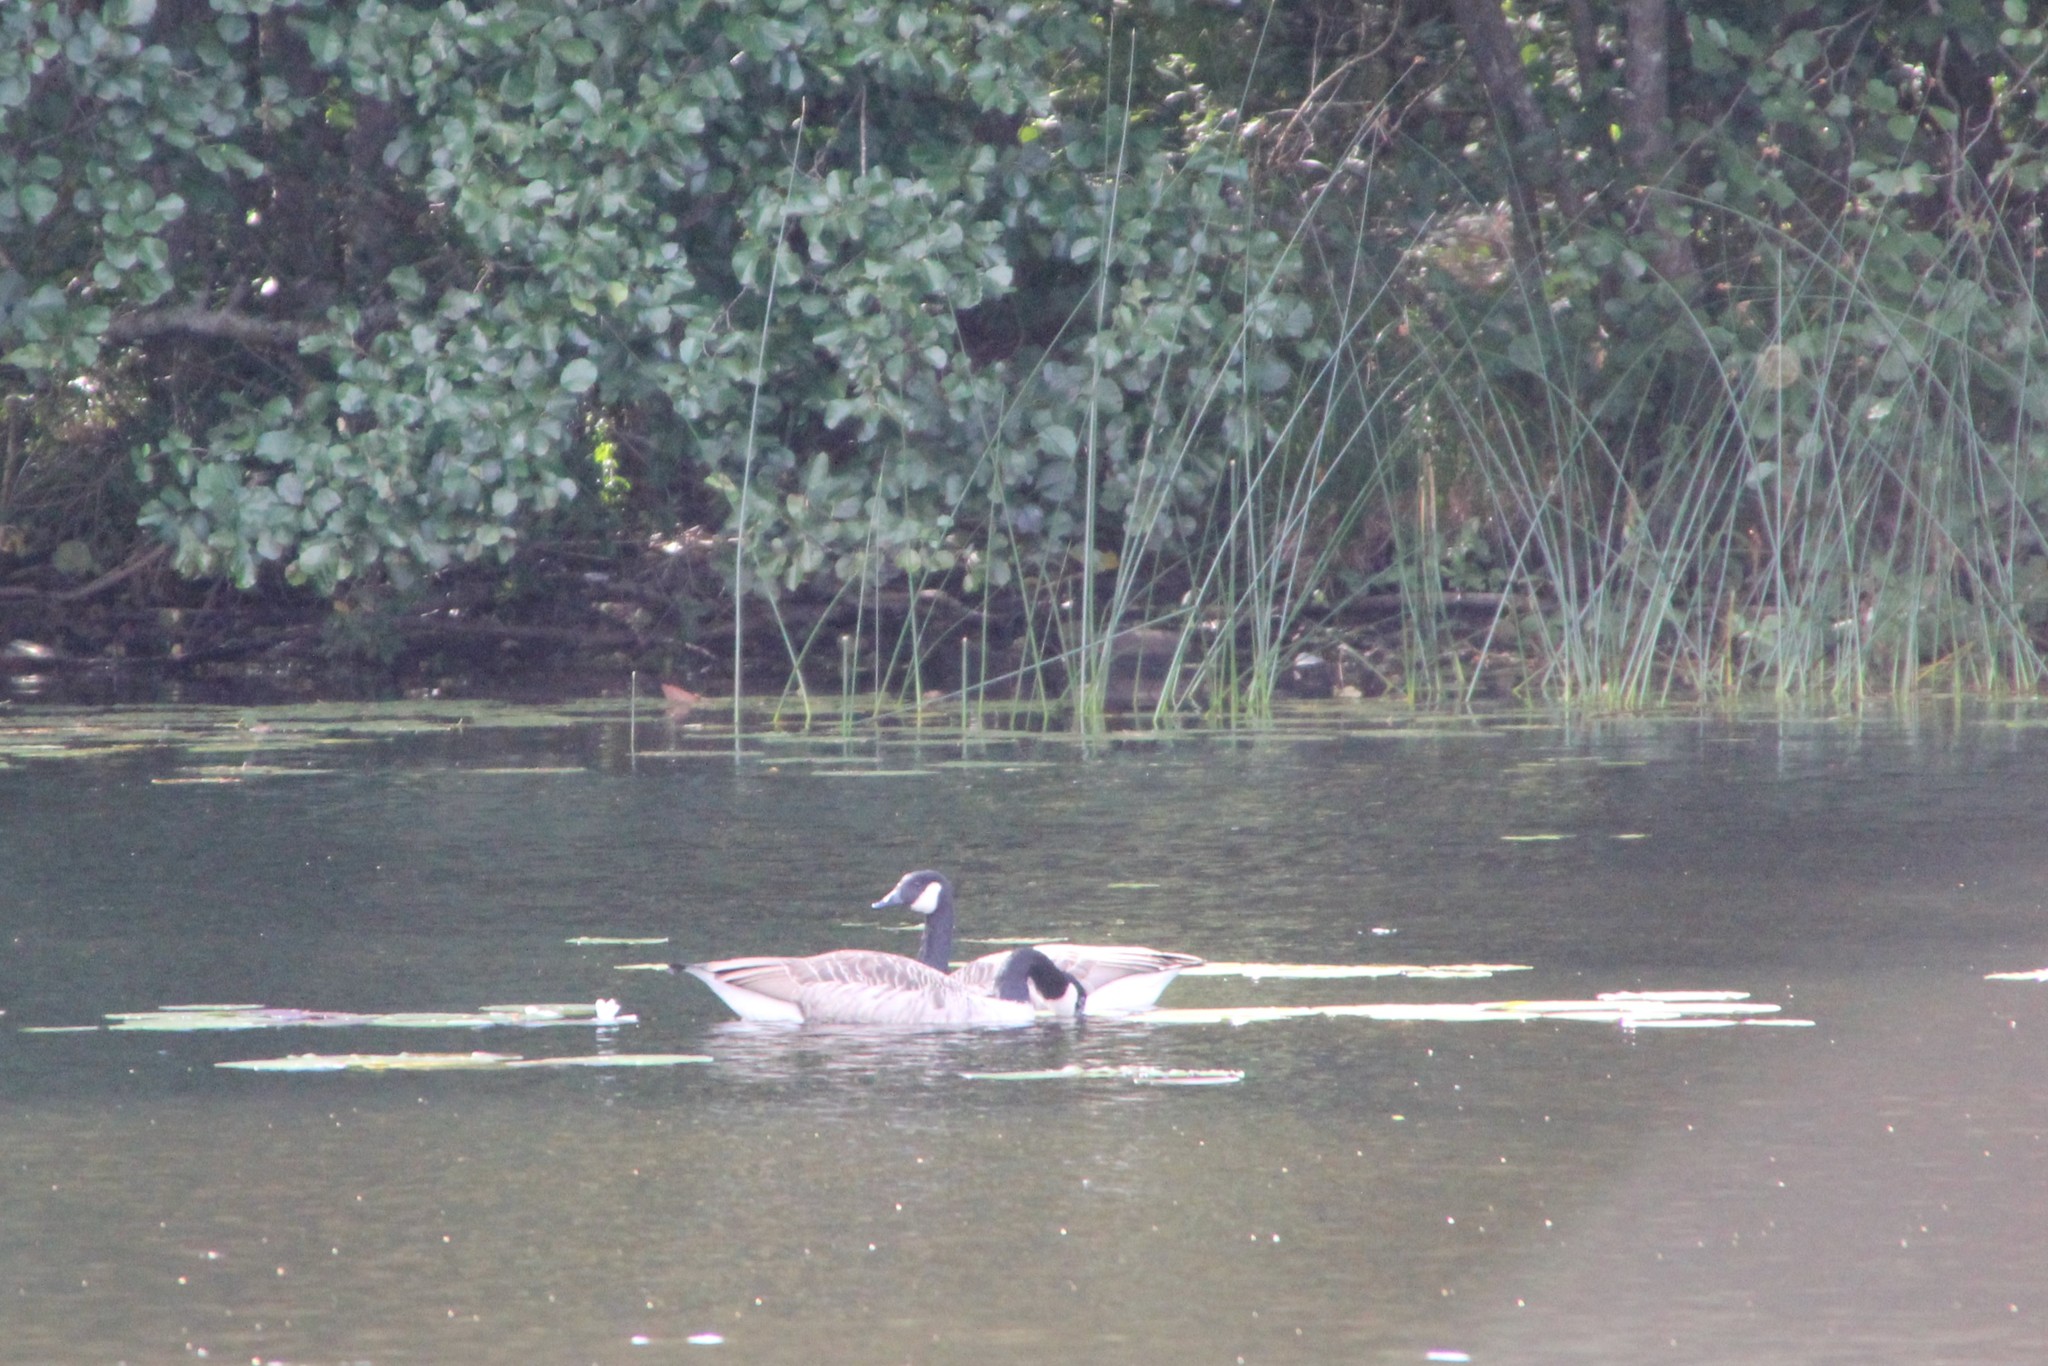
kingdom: Animalia
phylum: Chordata
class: Aves
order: Anseriformes
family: Anatidae
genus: Branta
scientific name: Branta canadensis
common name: Canada goose
